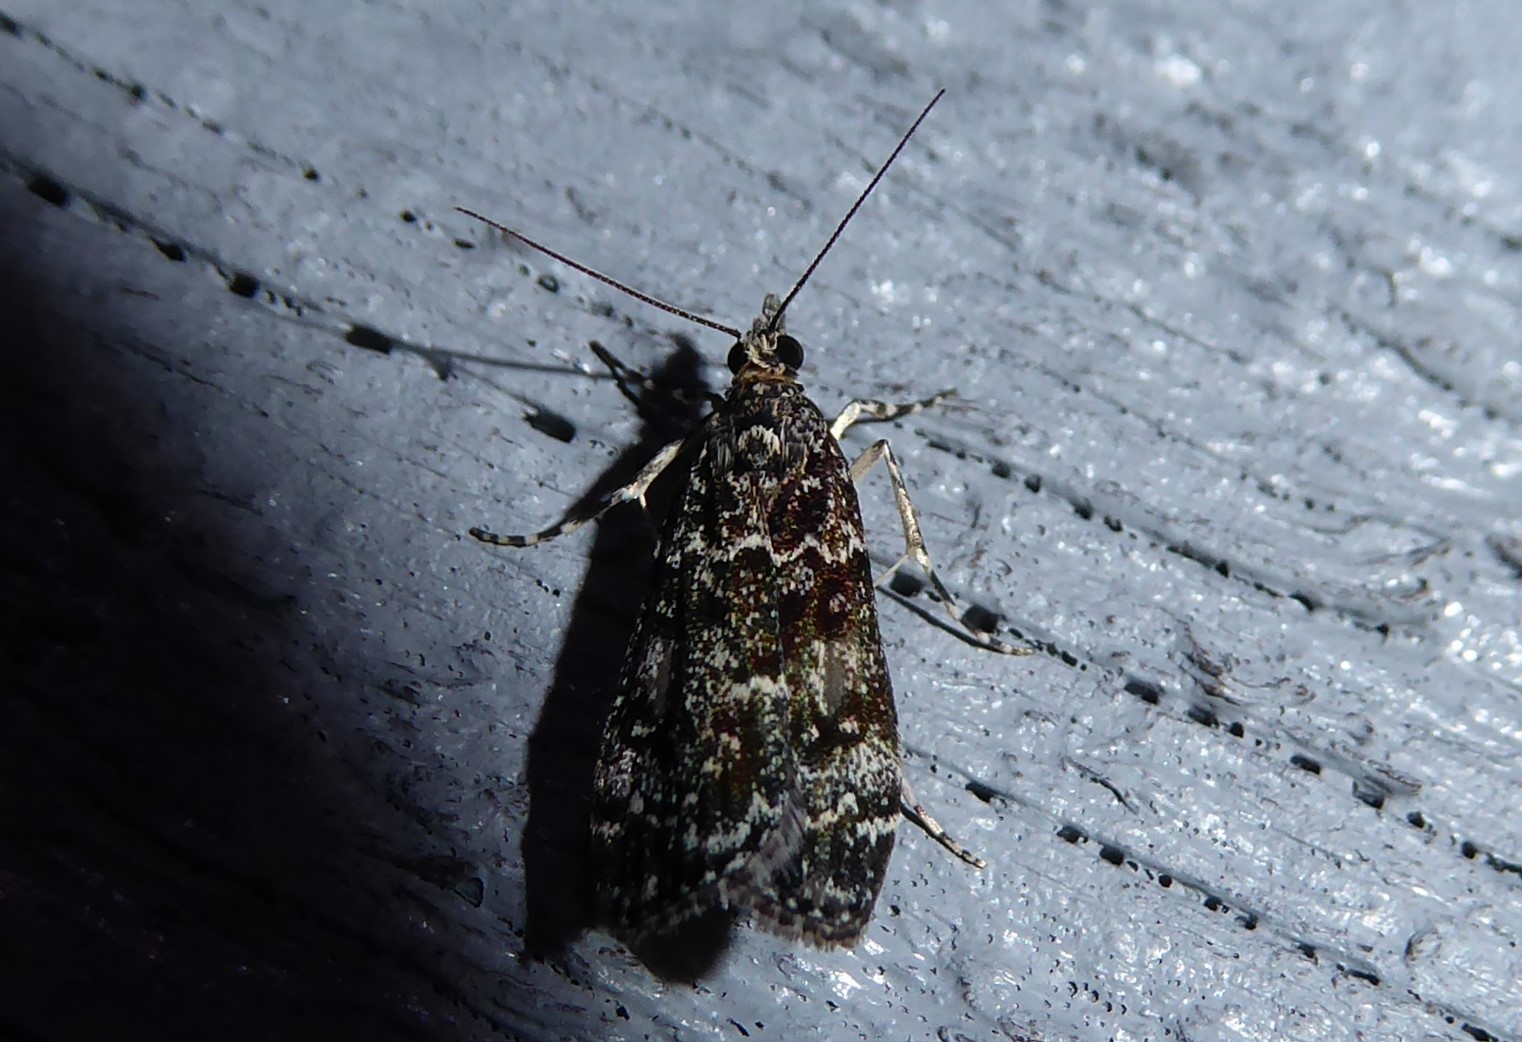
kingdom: Animalia
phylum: Arthropoda
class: Insecta
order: Lepidoptera
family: Crambidae
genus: Eudonia
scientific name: Eudonia philerga
